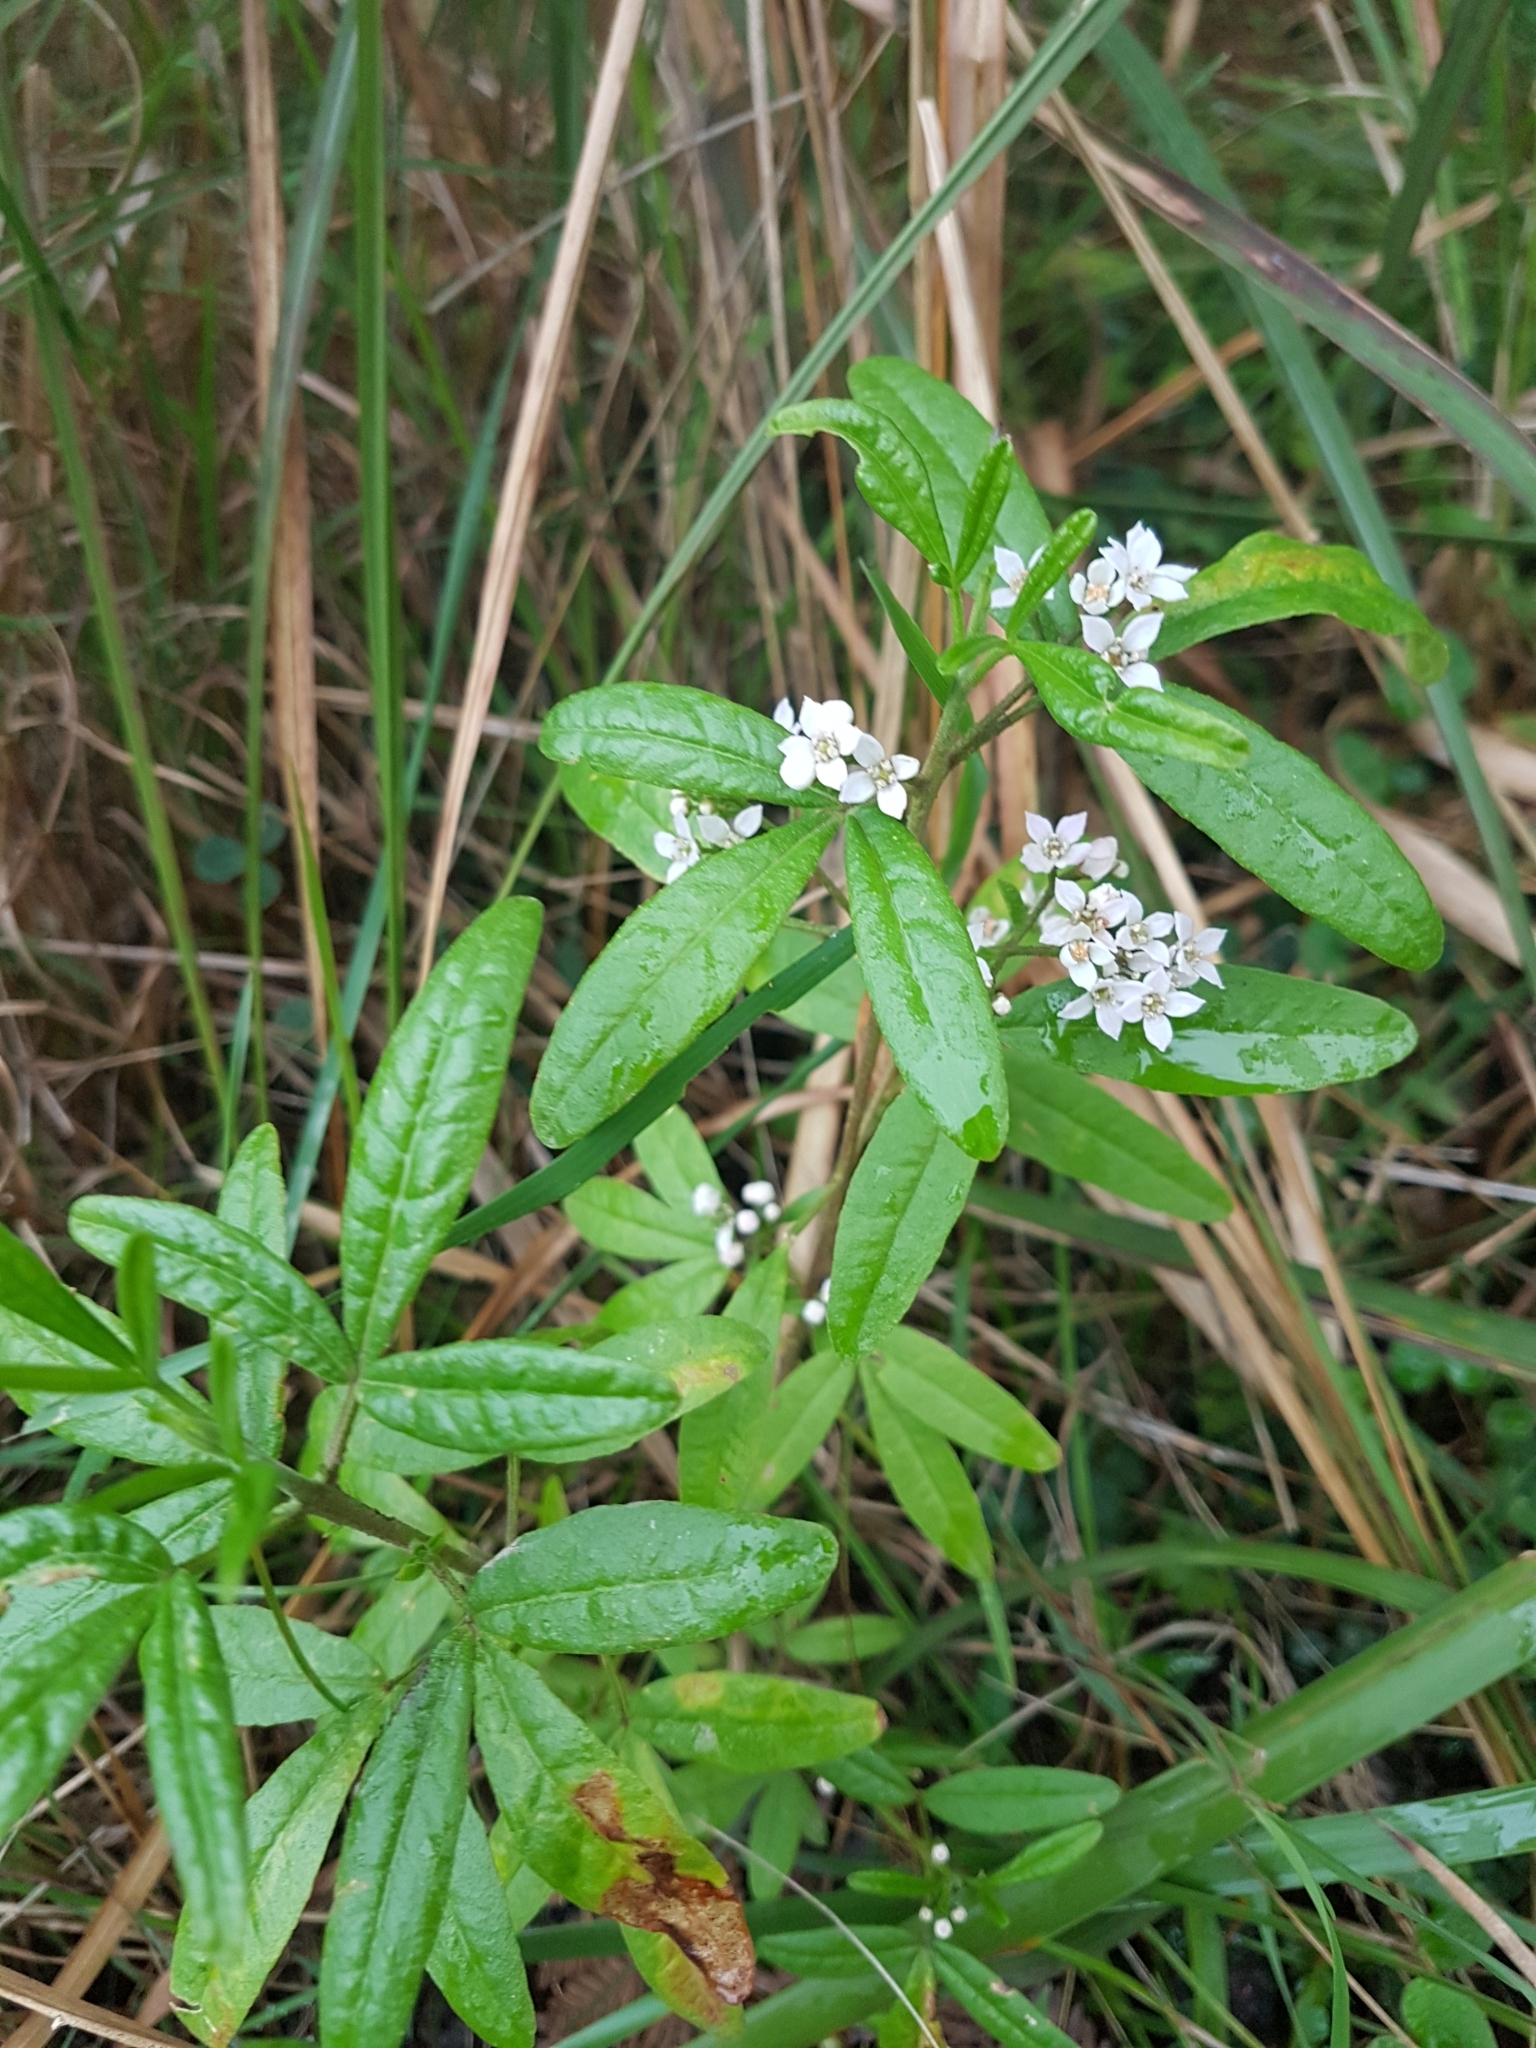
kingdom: Plantae
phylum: Tracheophyta
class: Magnoliopsida
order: Sapindales
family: Rutaceae
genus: Zieria
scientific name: Zieria smithii
